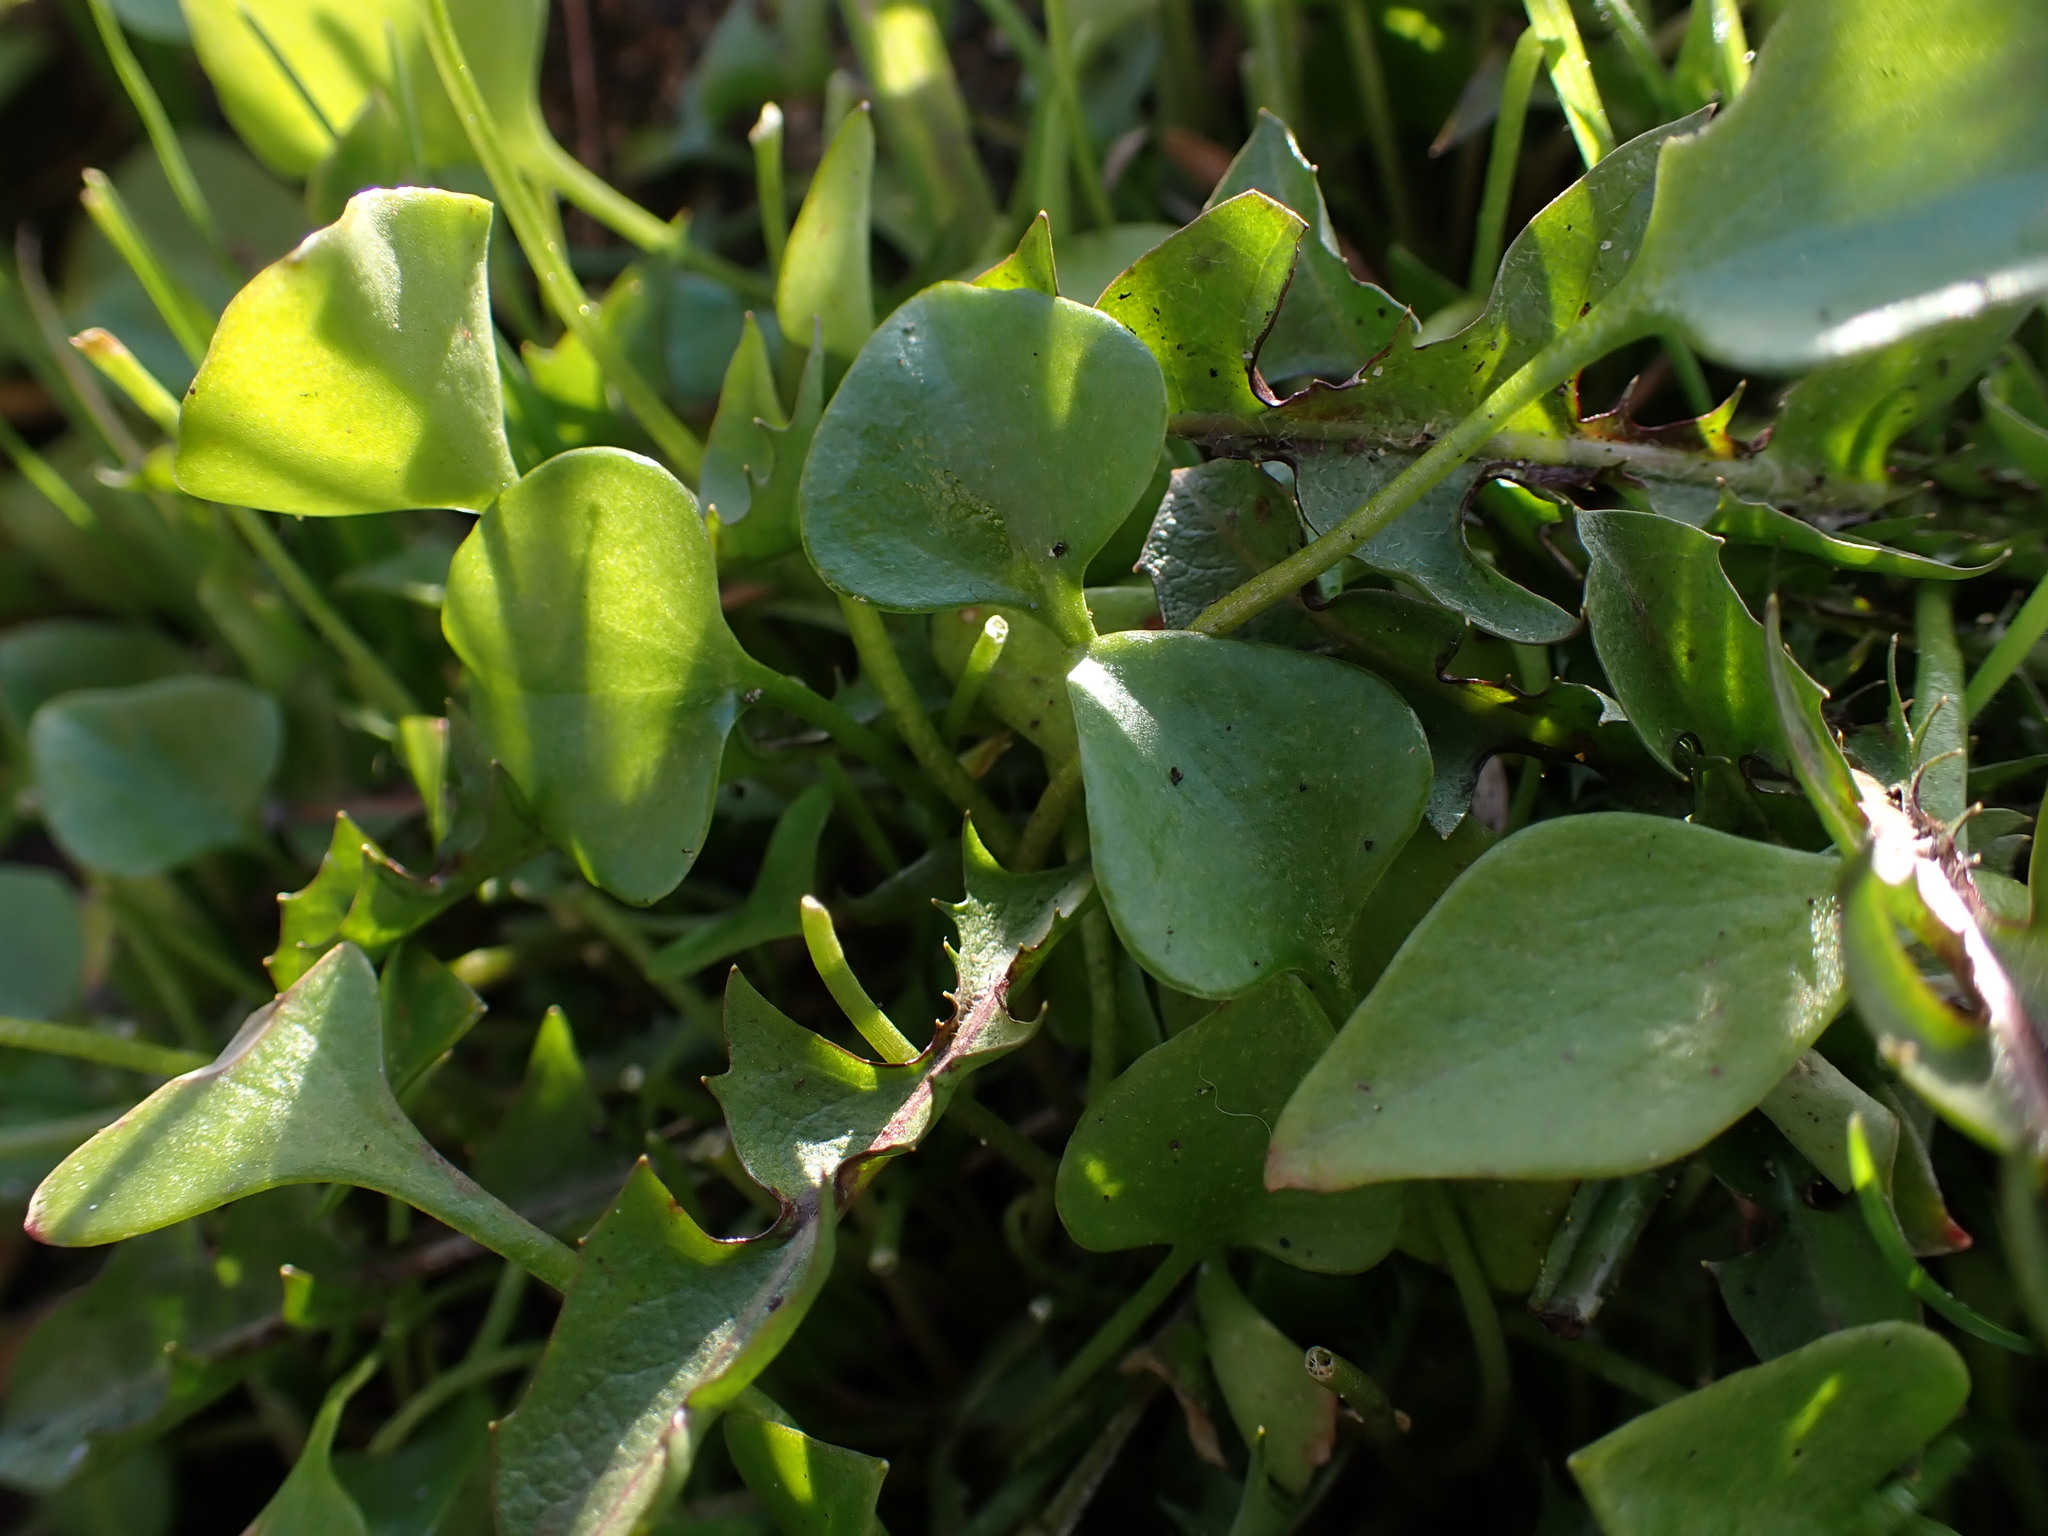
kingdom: Plantae
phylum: Tracheophyta
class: Magnoliopsida
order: Caryophyllales
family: Montiaceae
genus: Claytonia
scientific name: Claytonia perfoliata
